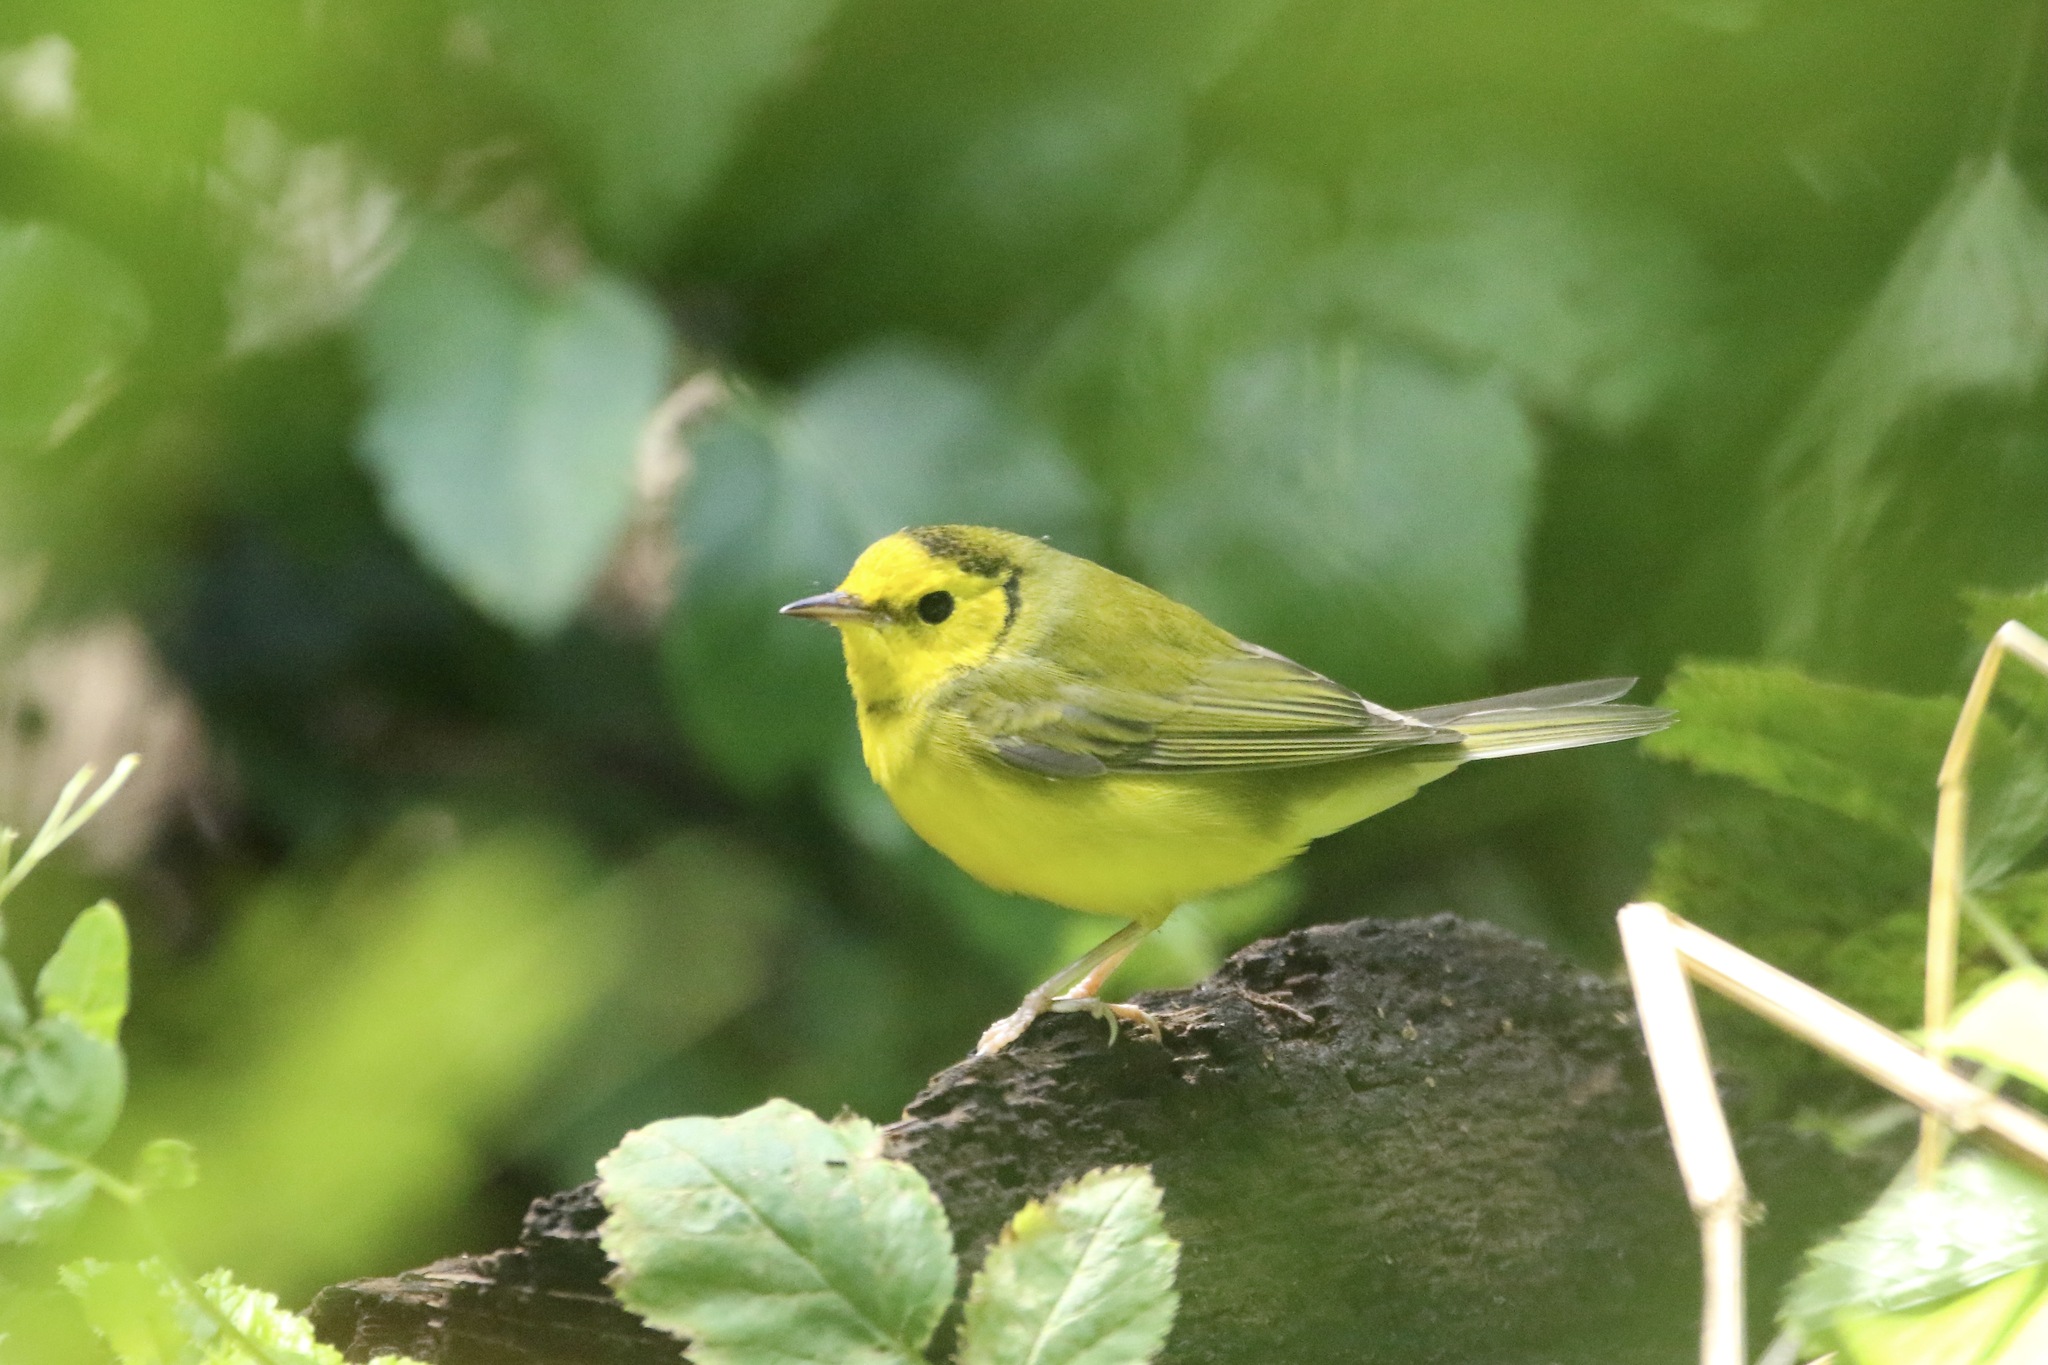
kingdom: Animalia
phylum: Chordata
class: Aves
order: Passeriformes
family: Parulidae
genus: Setophaga
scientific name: Setophaga citrina
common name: Hooded warbler
